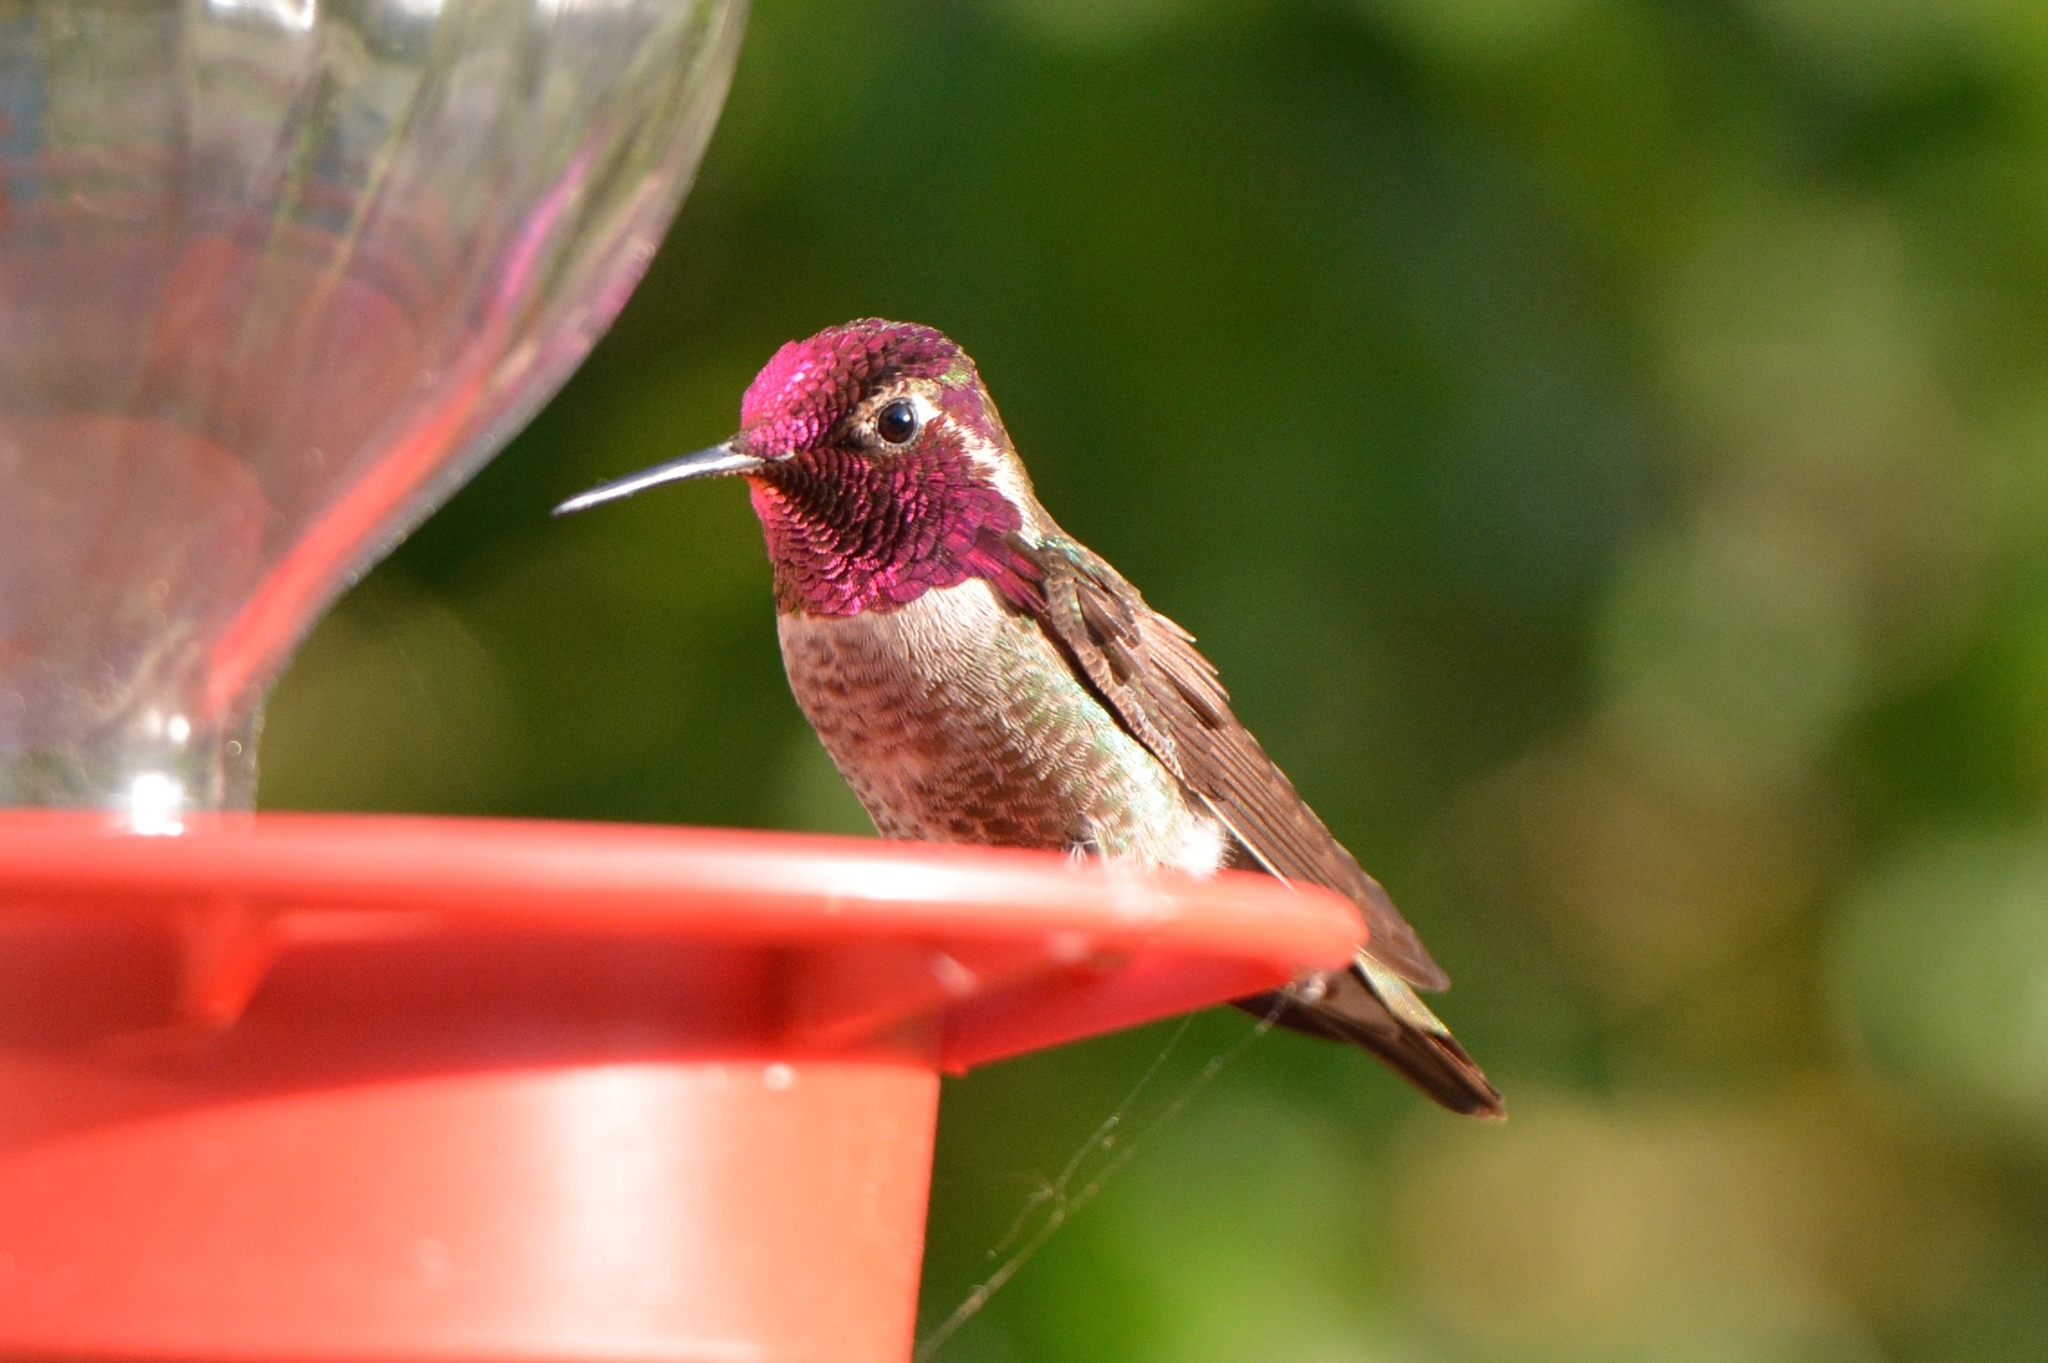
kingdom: Animalia
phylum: Chordata
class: Aves
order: Apodiformes
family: Trochilidae
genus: Calypte
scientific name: Calypte anna
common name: Anna's hummingbird
